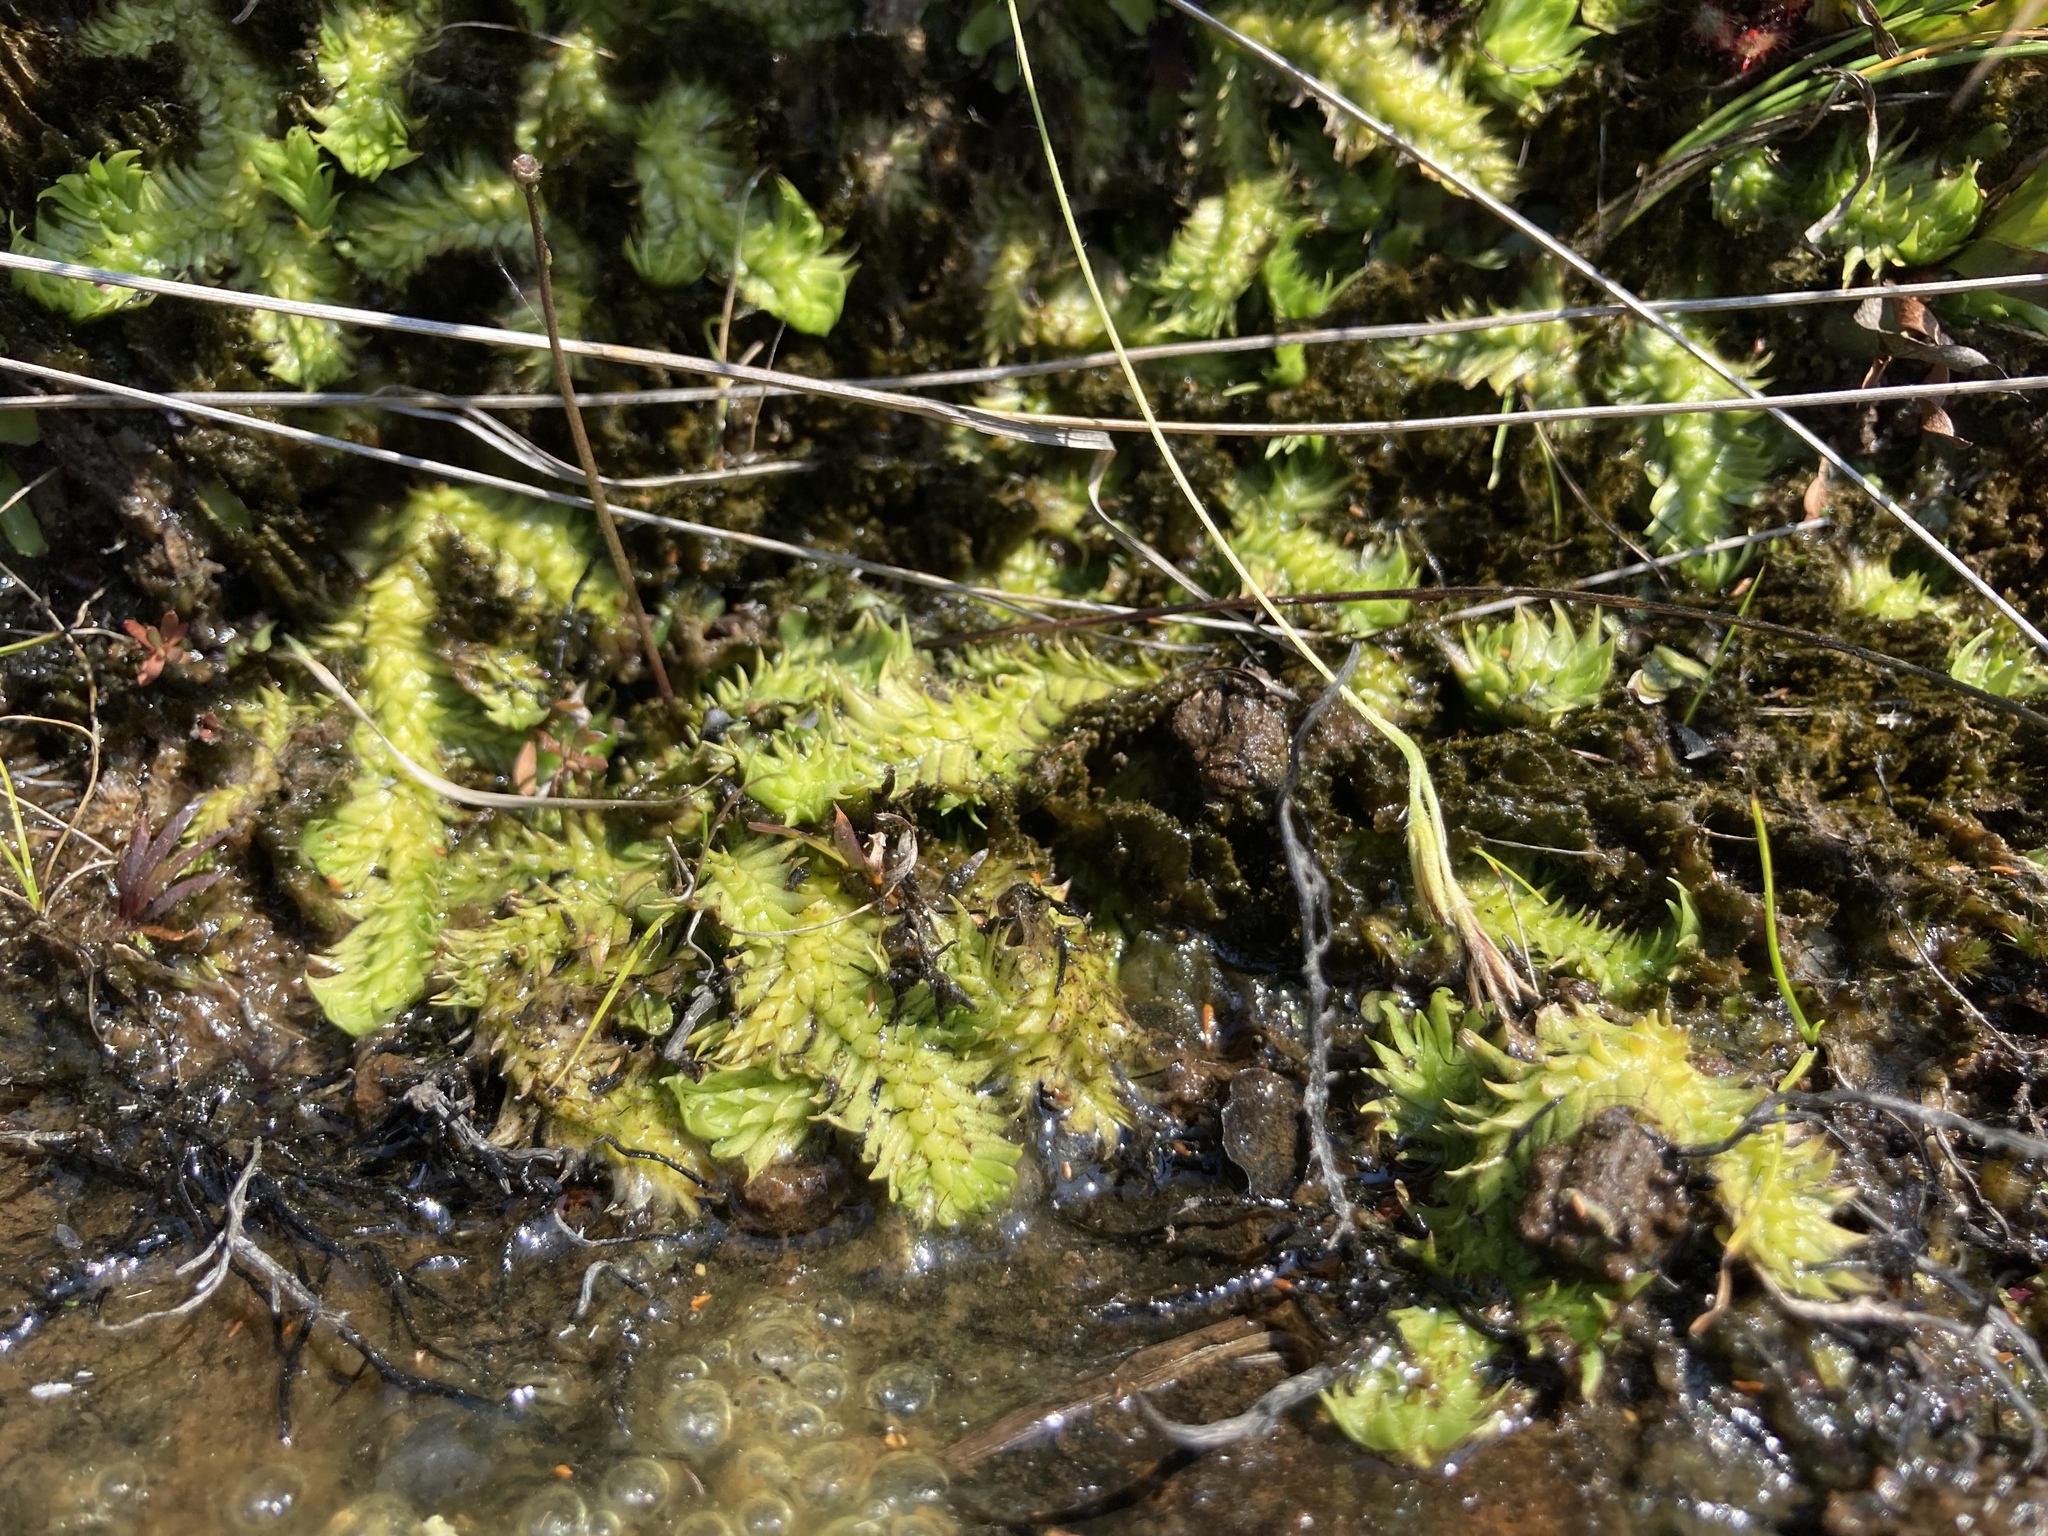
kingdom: Plantae
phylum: Tracheophyta
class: Lycopodiopsida
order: Lycopodiales
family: Lycopodiaceae
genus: Pseudolycopodiella
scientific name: Pseudolycopodiella sarcocaulos
